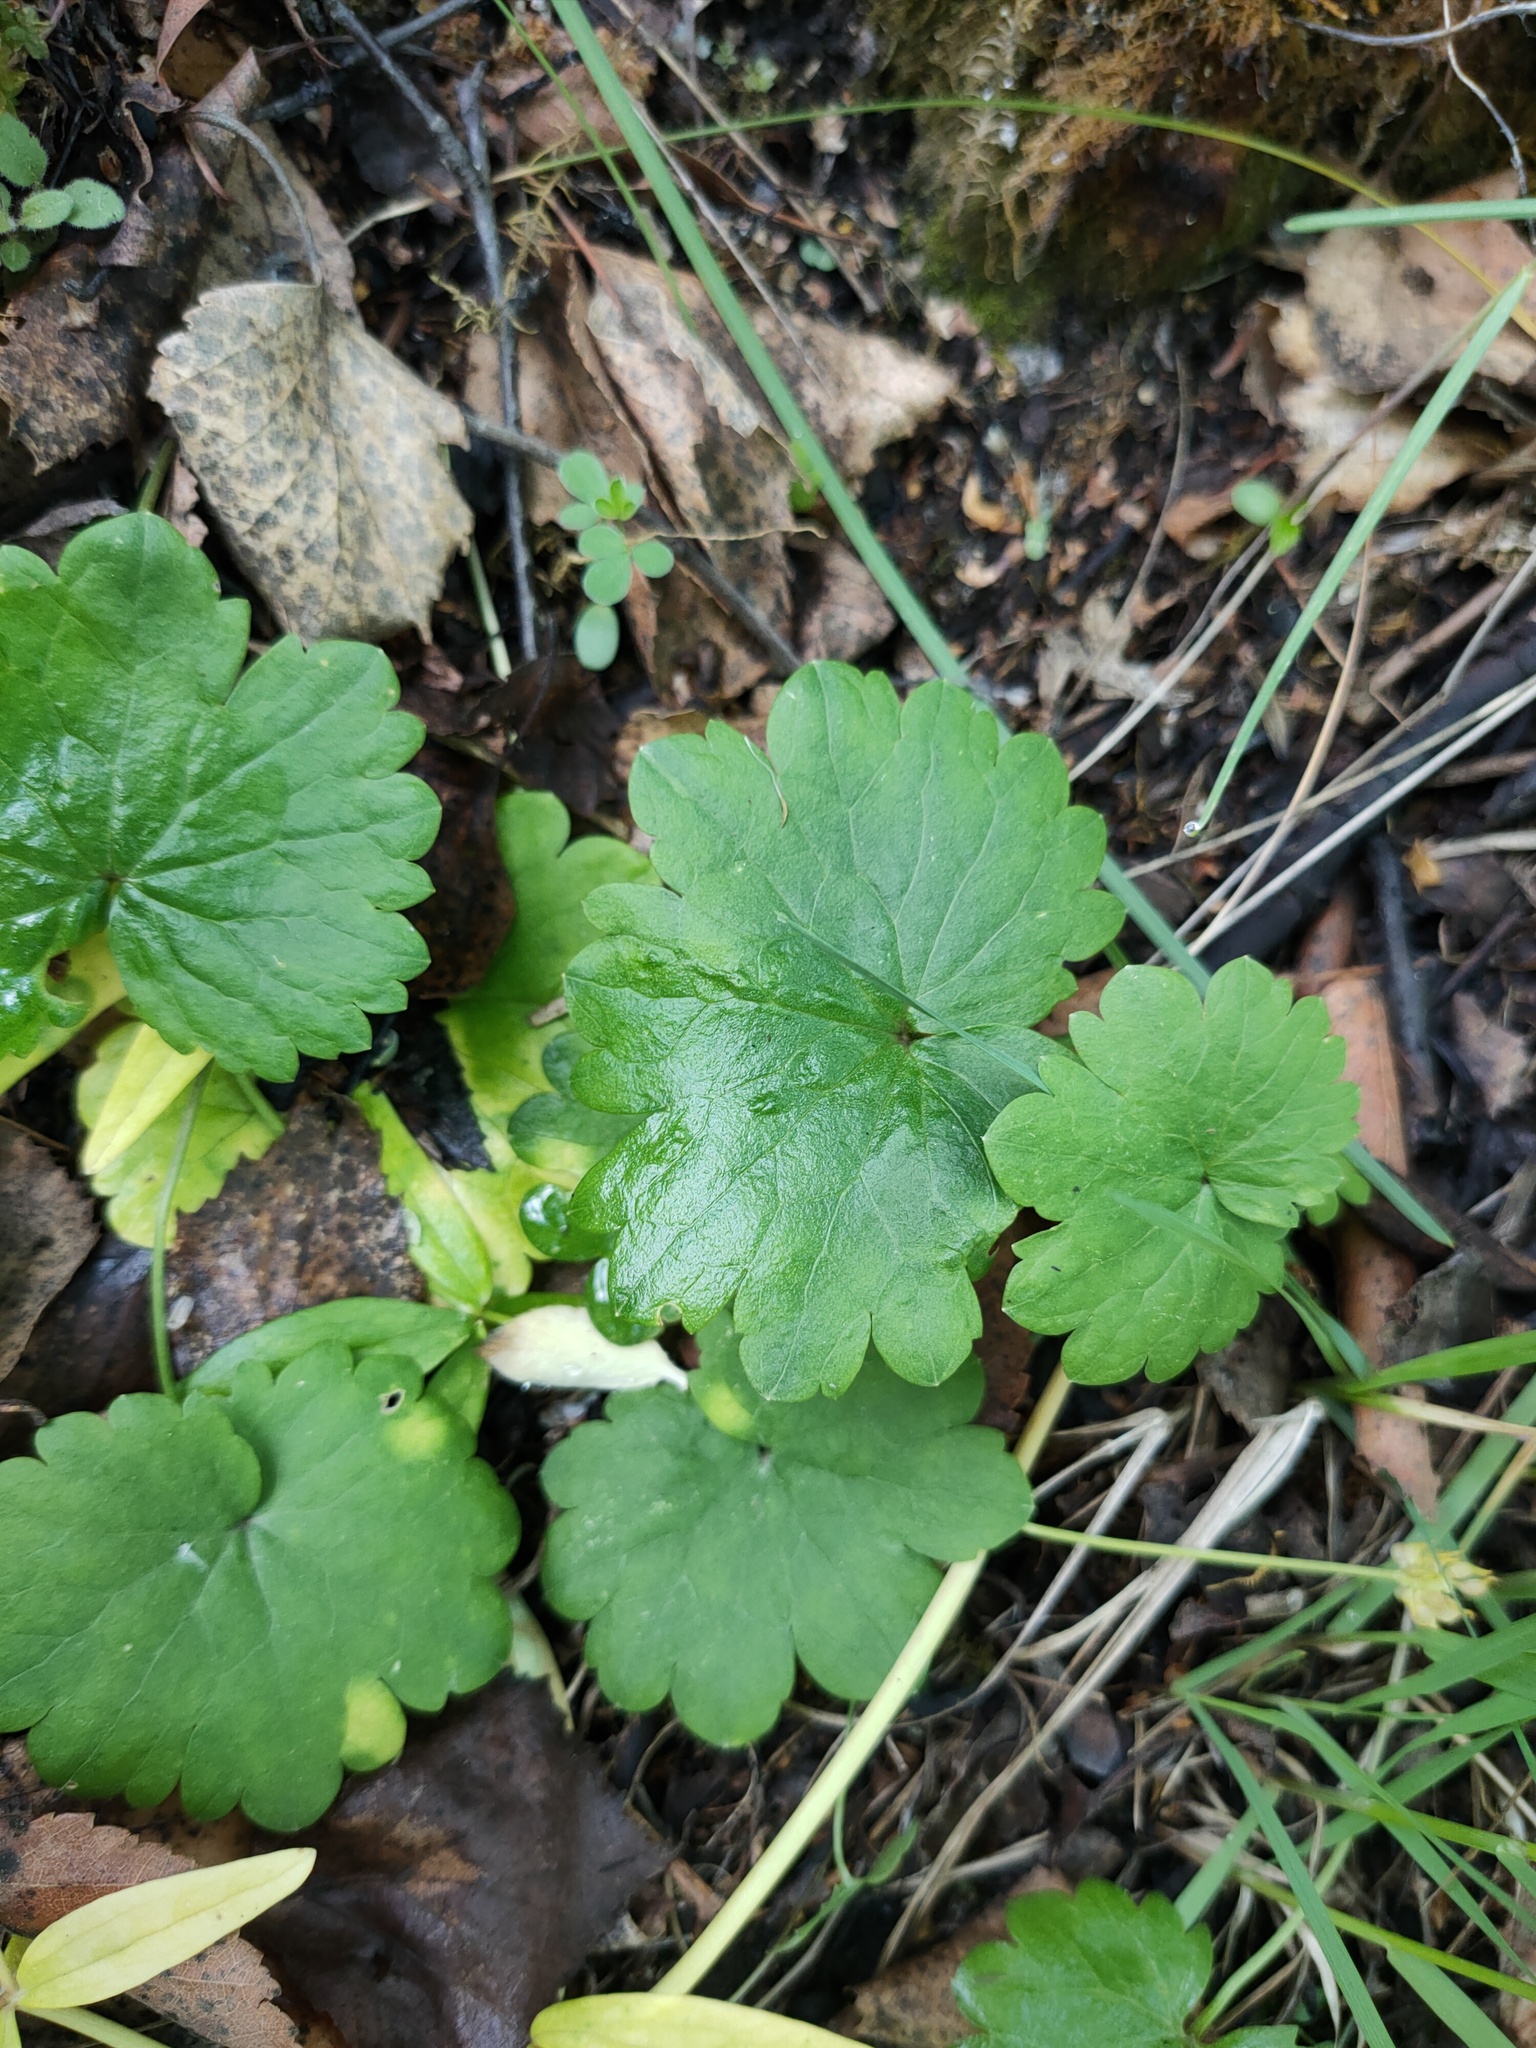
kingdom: Plantae
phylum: Tracheophyta
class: Magnoliopsida
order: Lamiales
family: Lamiaceae
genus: Glechoma
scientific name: Glechoma hederacea
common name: Ground ivy
